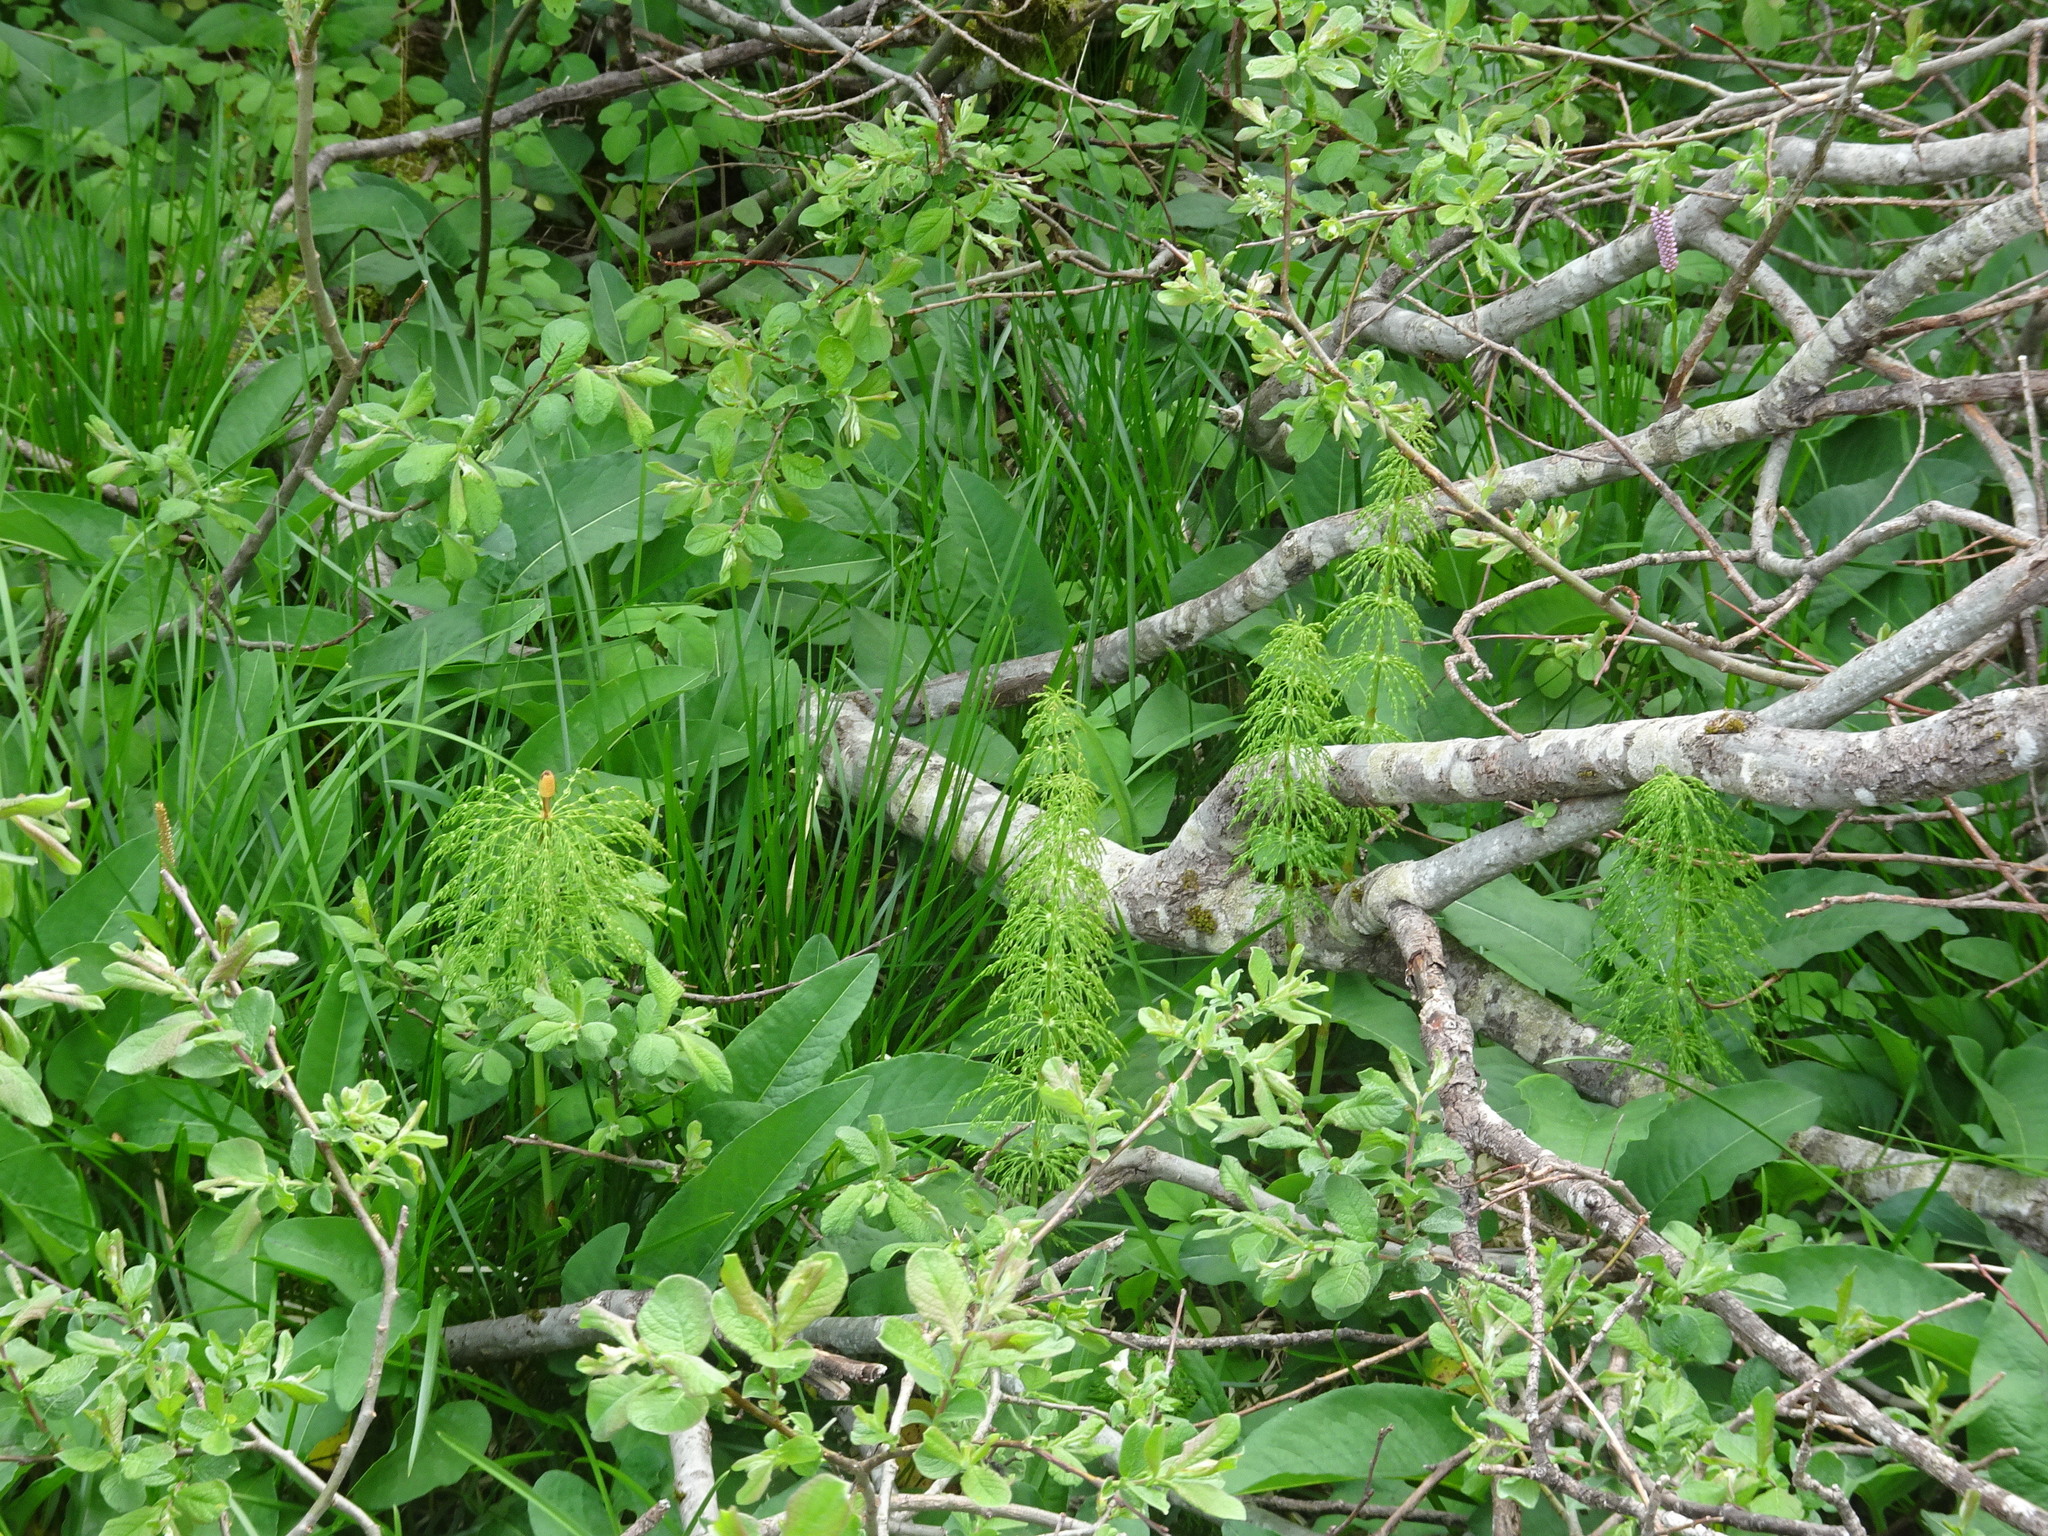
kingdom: Plantae
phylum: Tracheophyta
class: Polypodiopsida
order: Equisetales
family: Equisetaceae
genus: Equisetum
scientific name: Equisetum sylvaticum
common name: Wood horsetail
